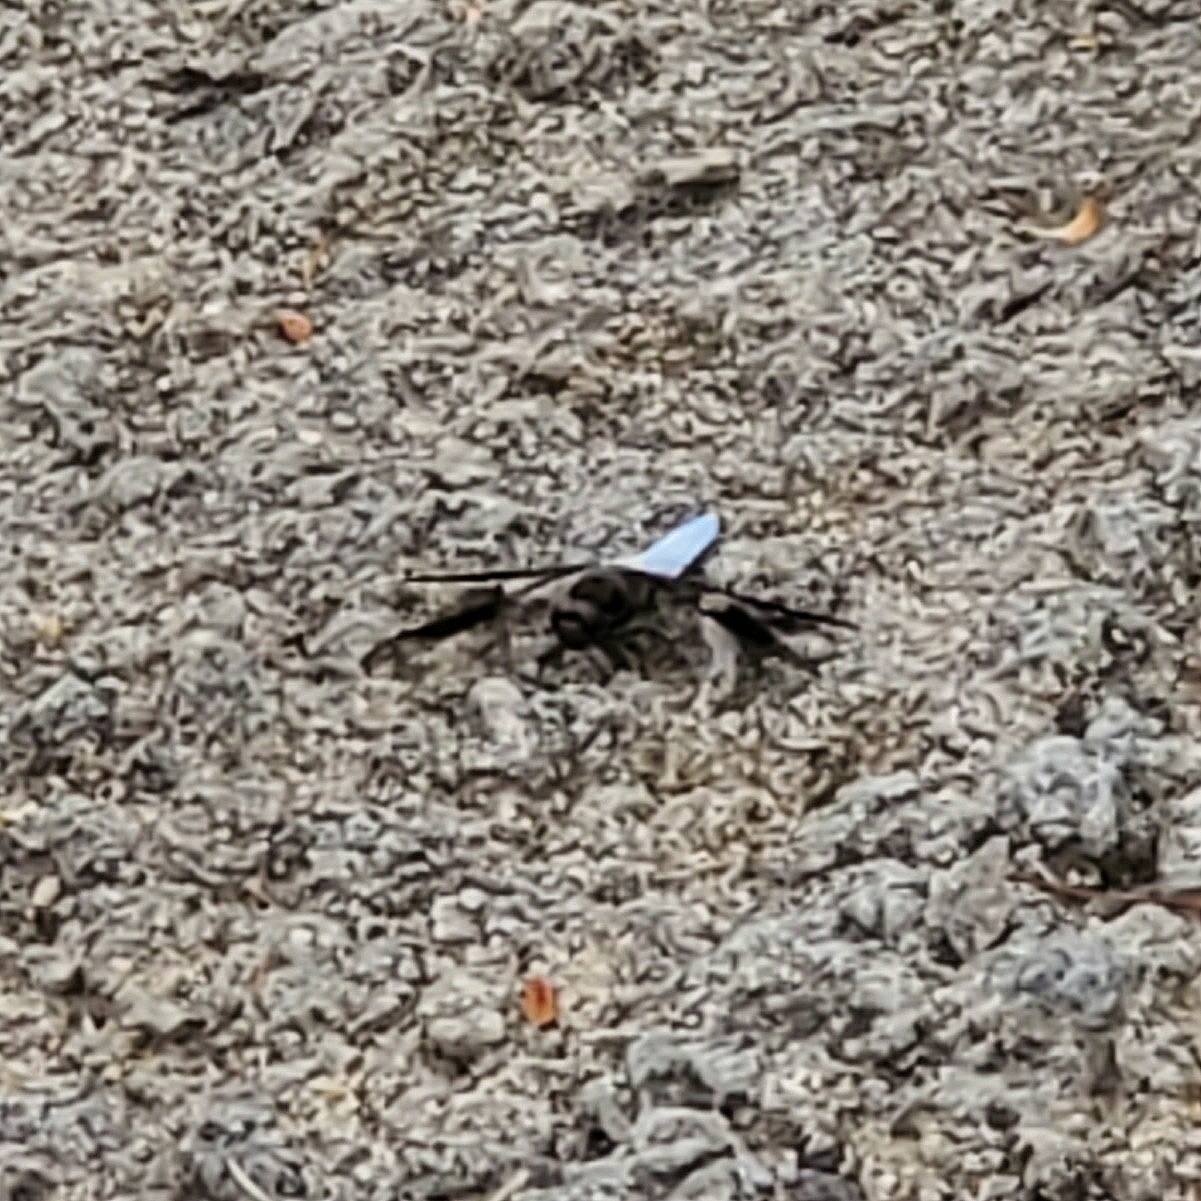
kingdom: Animalia
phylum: Arthropoda
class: Insecta
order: Odonata
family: Libellulidae
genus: Plathemis
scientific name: Plathemis lydia
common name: Common whitetail
